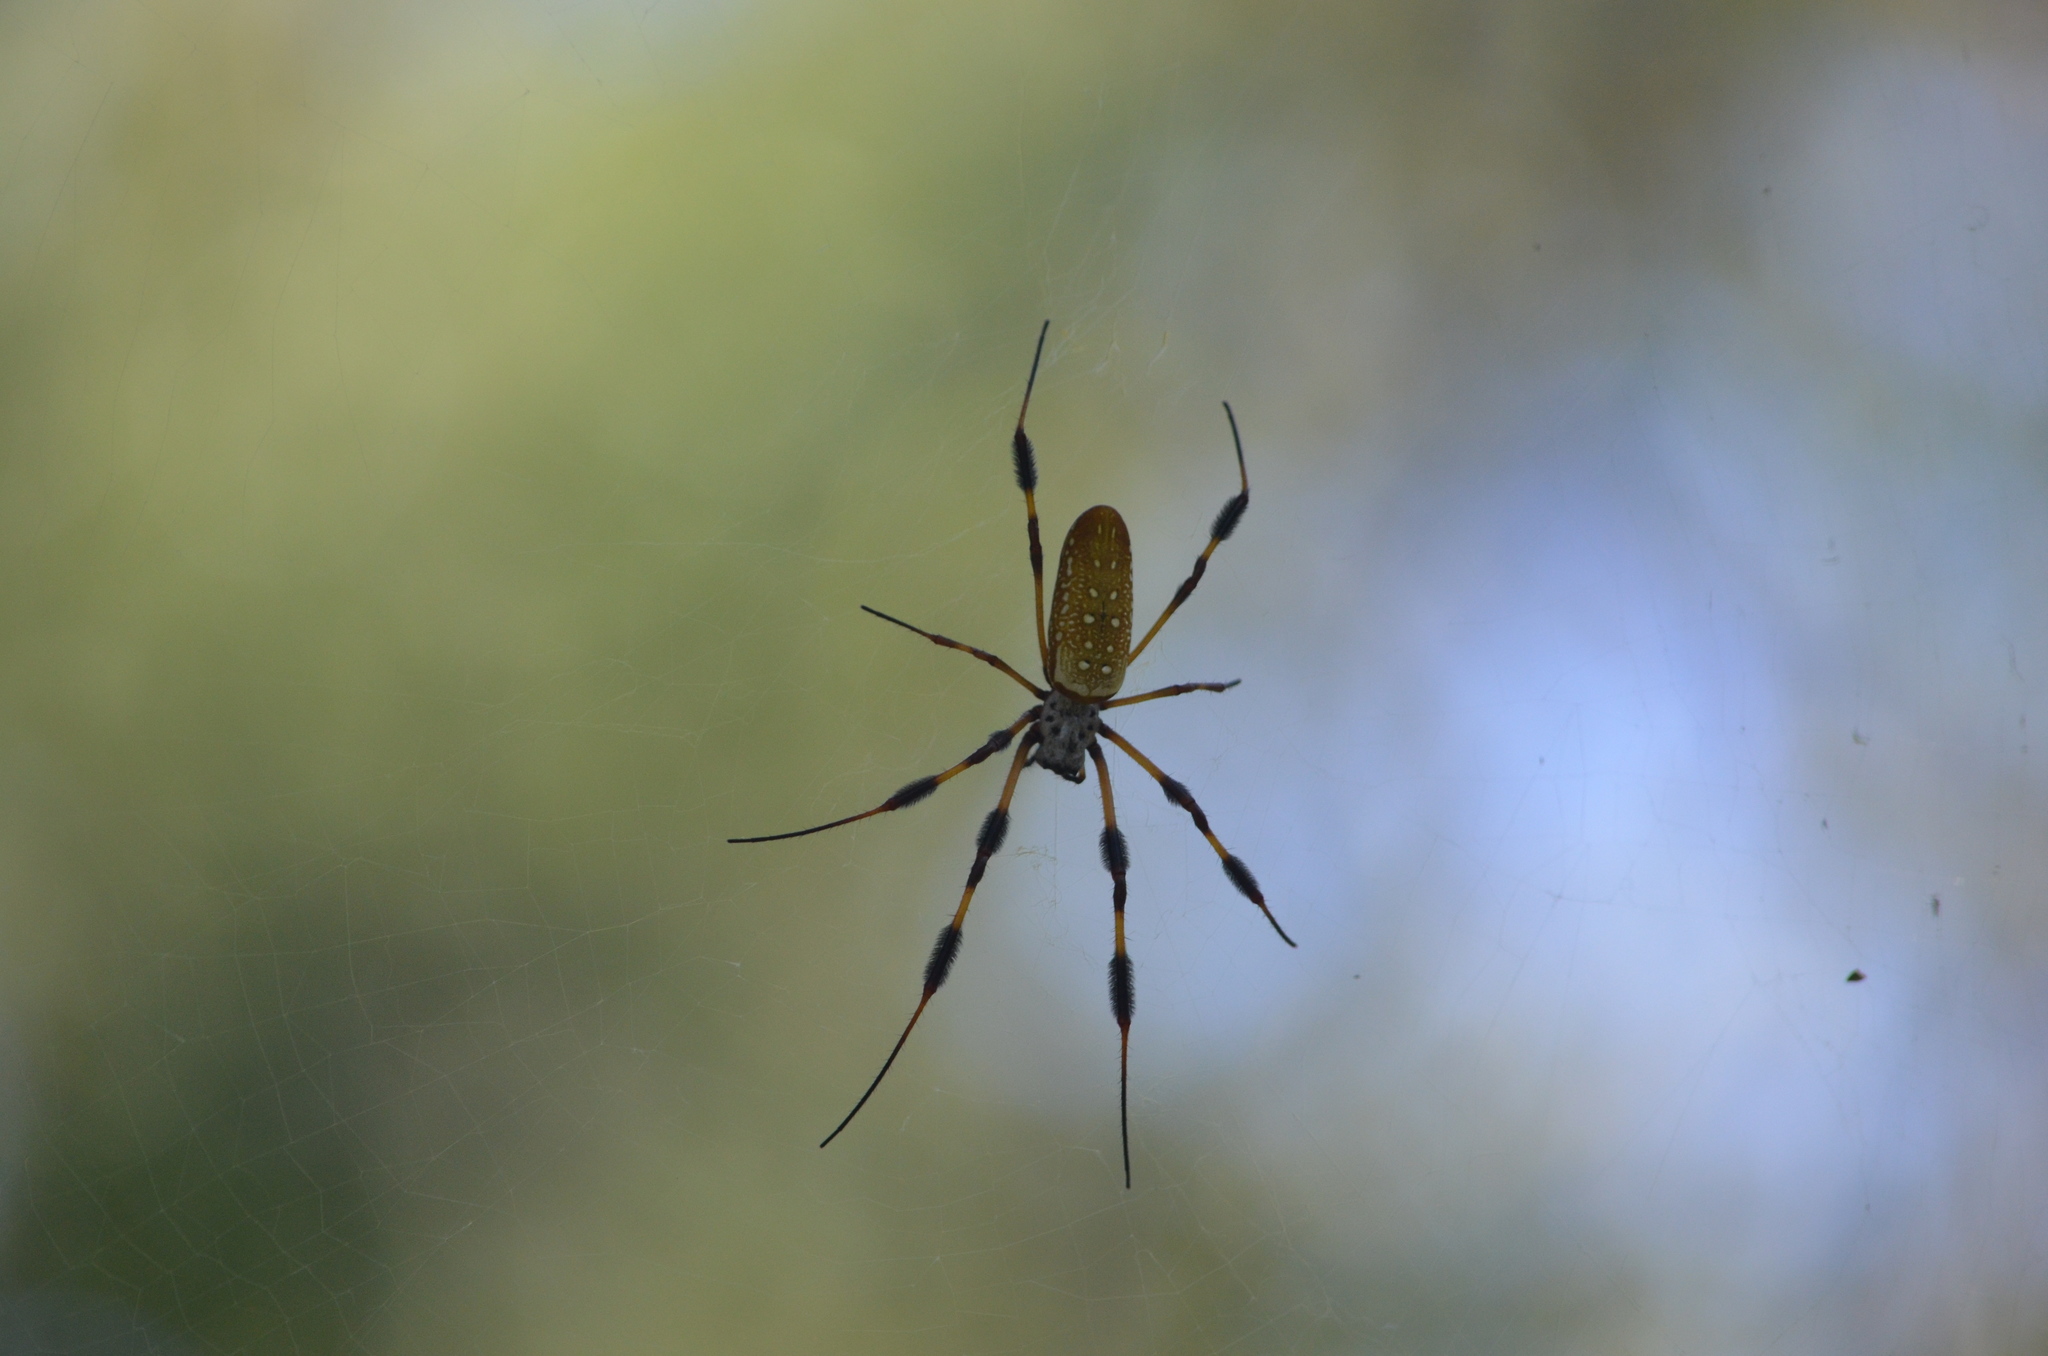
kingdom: Animalia
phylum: Arthropoda
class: Arachnida
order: Araneae
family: Araneidae
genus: Trichonephila
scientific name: Trichonephila clavipes
